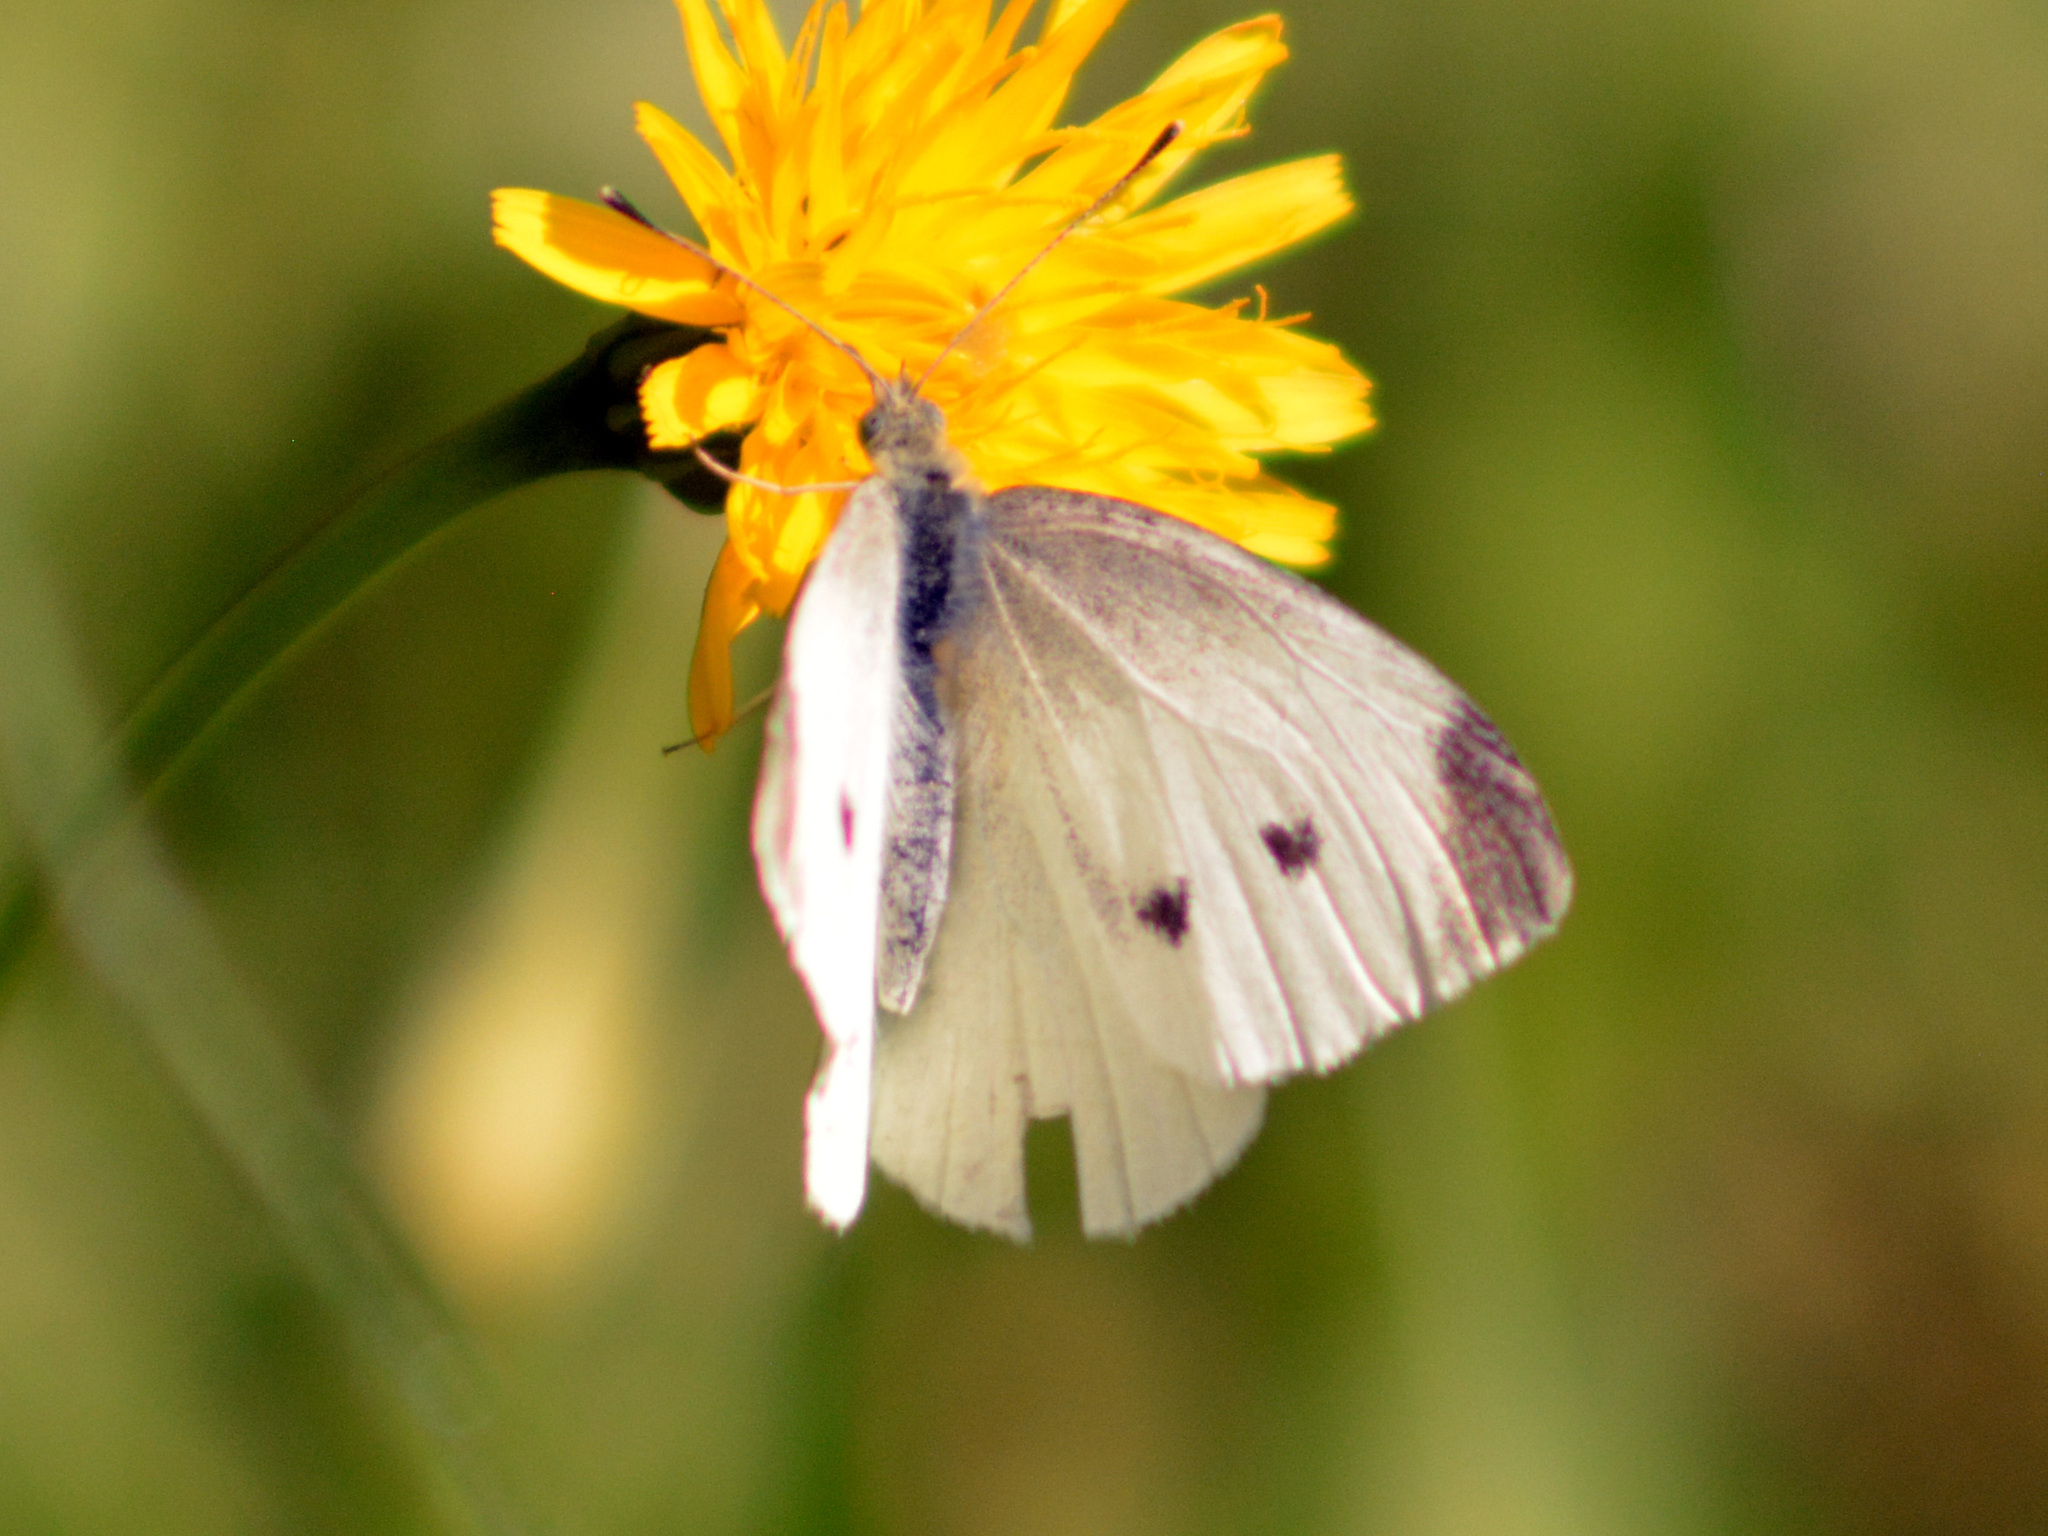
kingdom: Animalia
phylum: Arthropoda
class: Insecta
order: Lepidoptera
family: Pieridae
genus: Pieris
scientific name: Pieris rapae
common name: Small white
